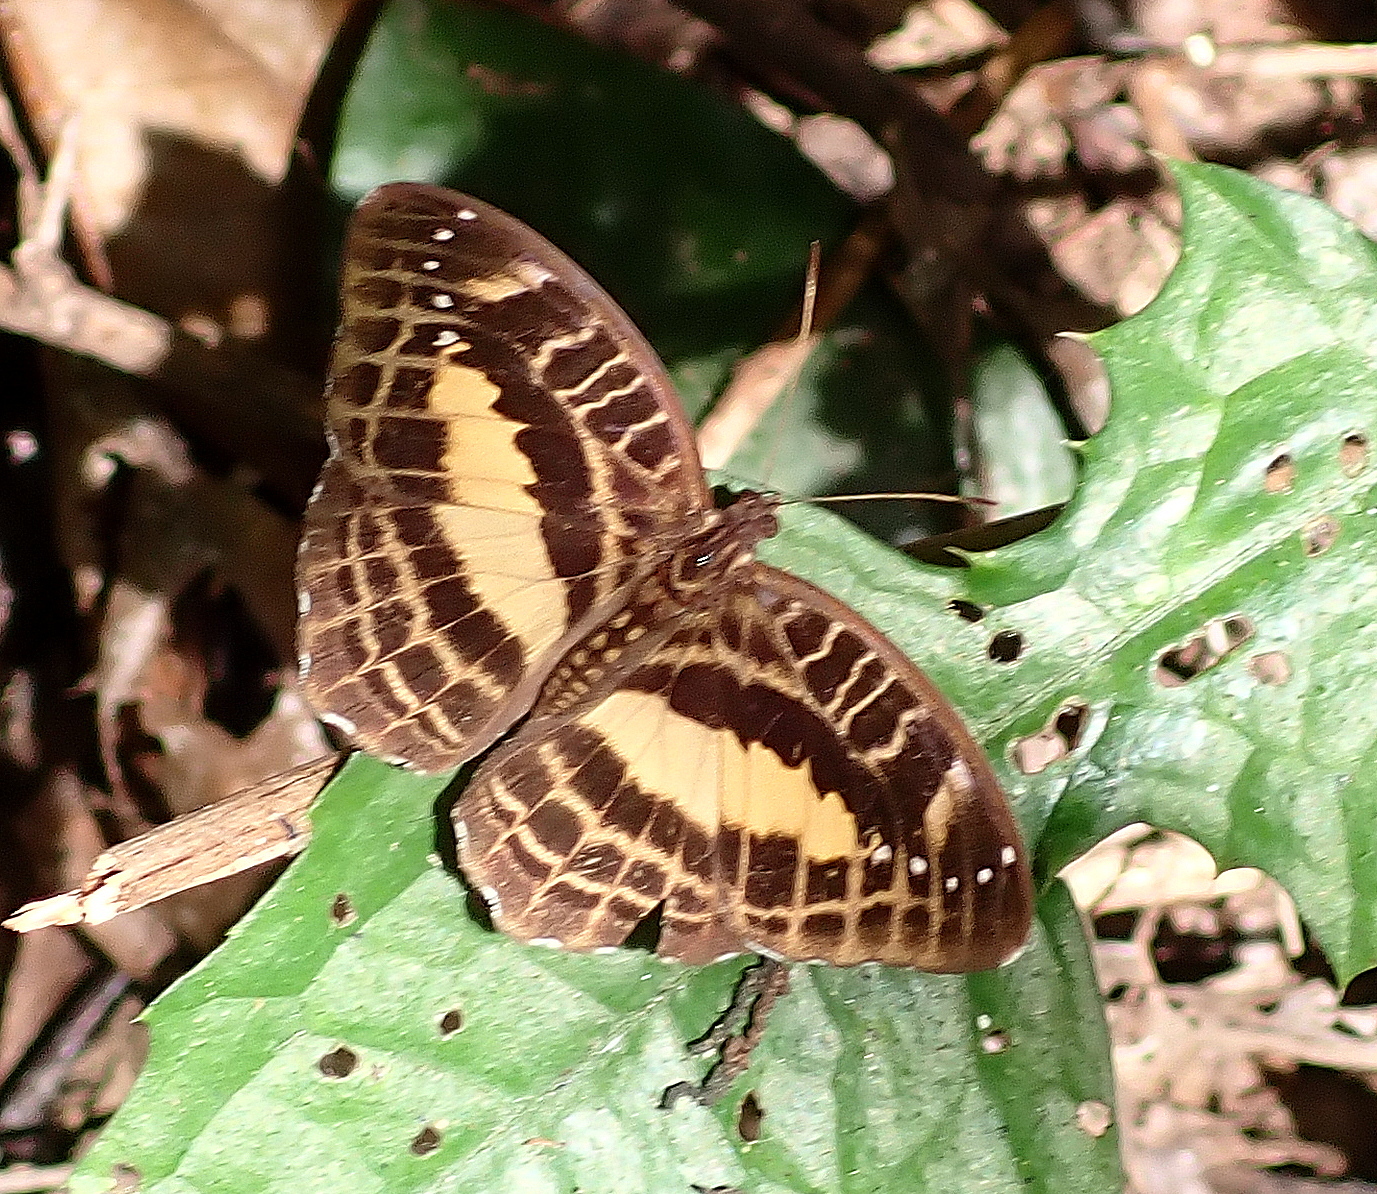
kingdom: Animalia
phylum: Arthropoda
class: Insecta
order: Lepidoptera
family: Nymphalidae
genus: Cynandra
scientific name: Cynandra opis
